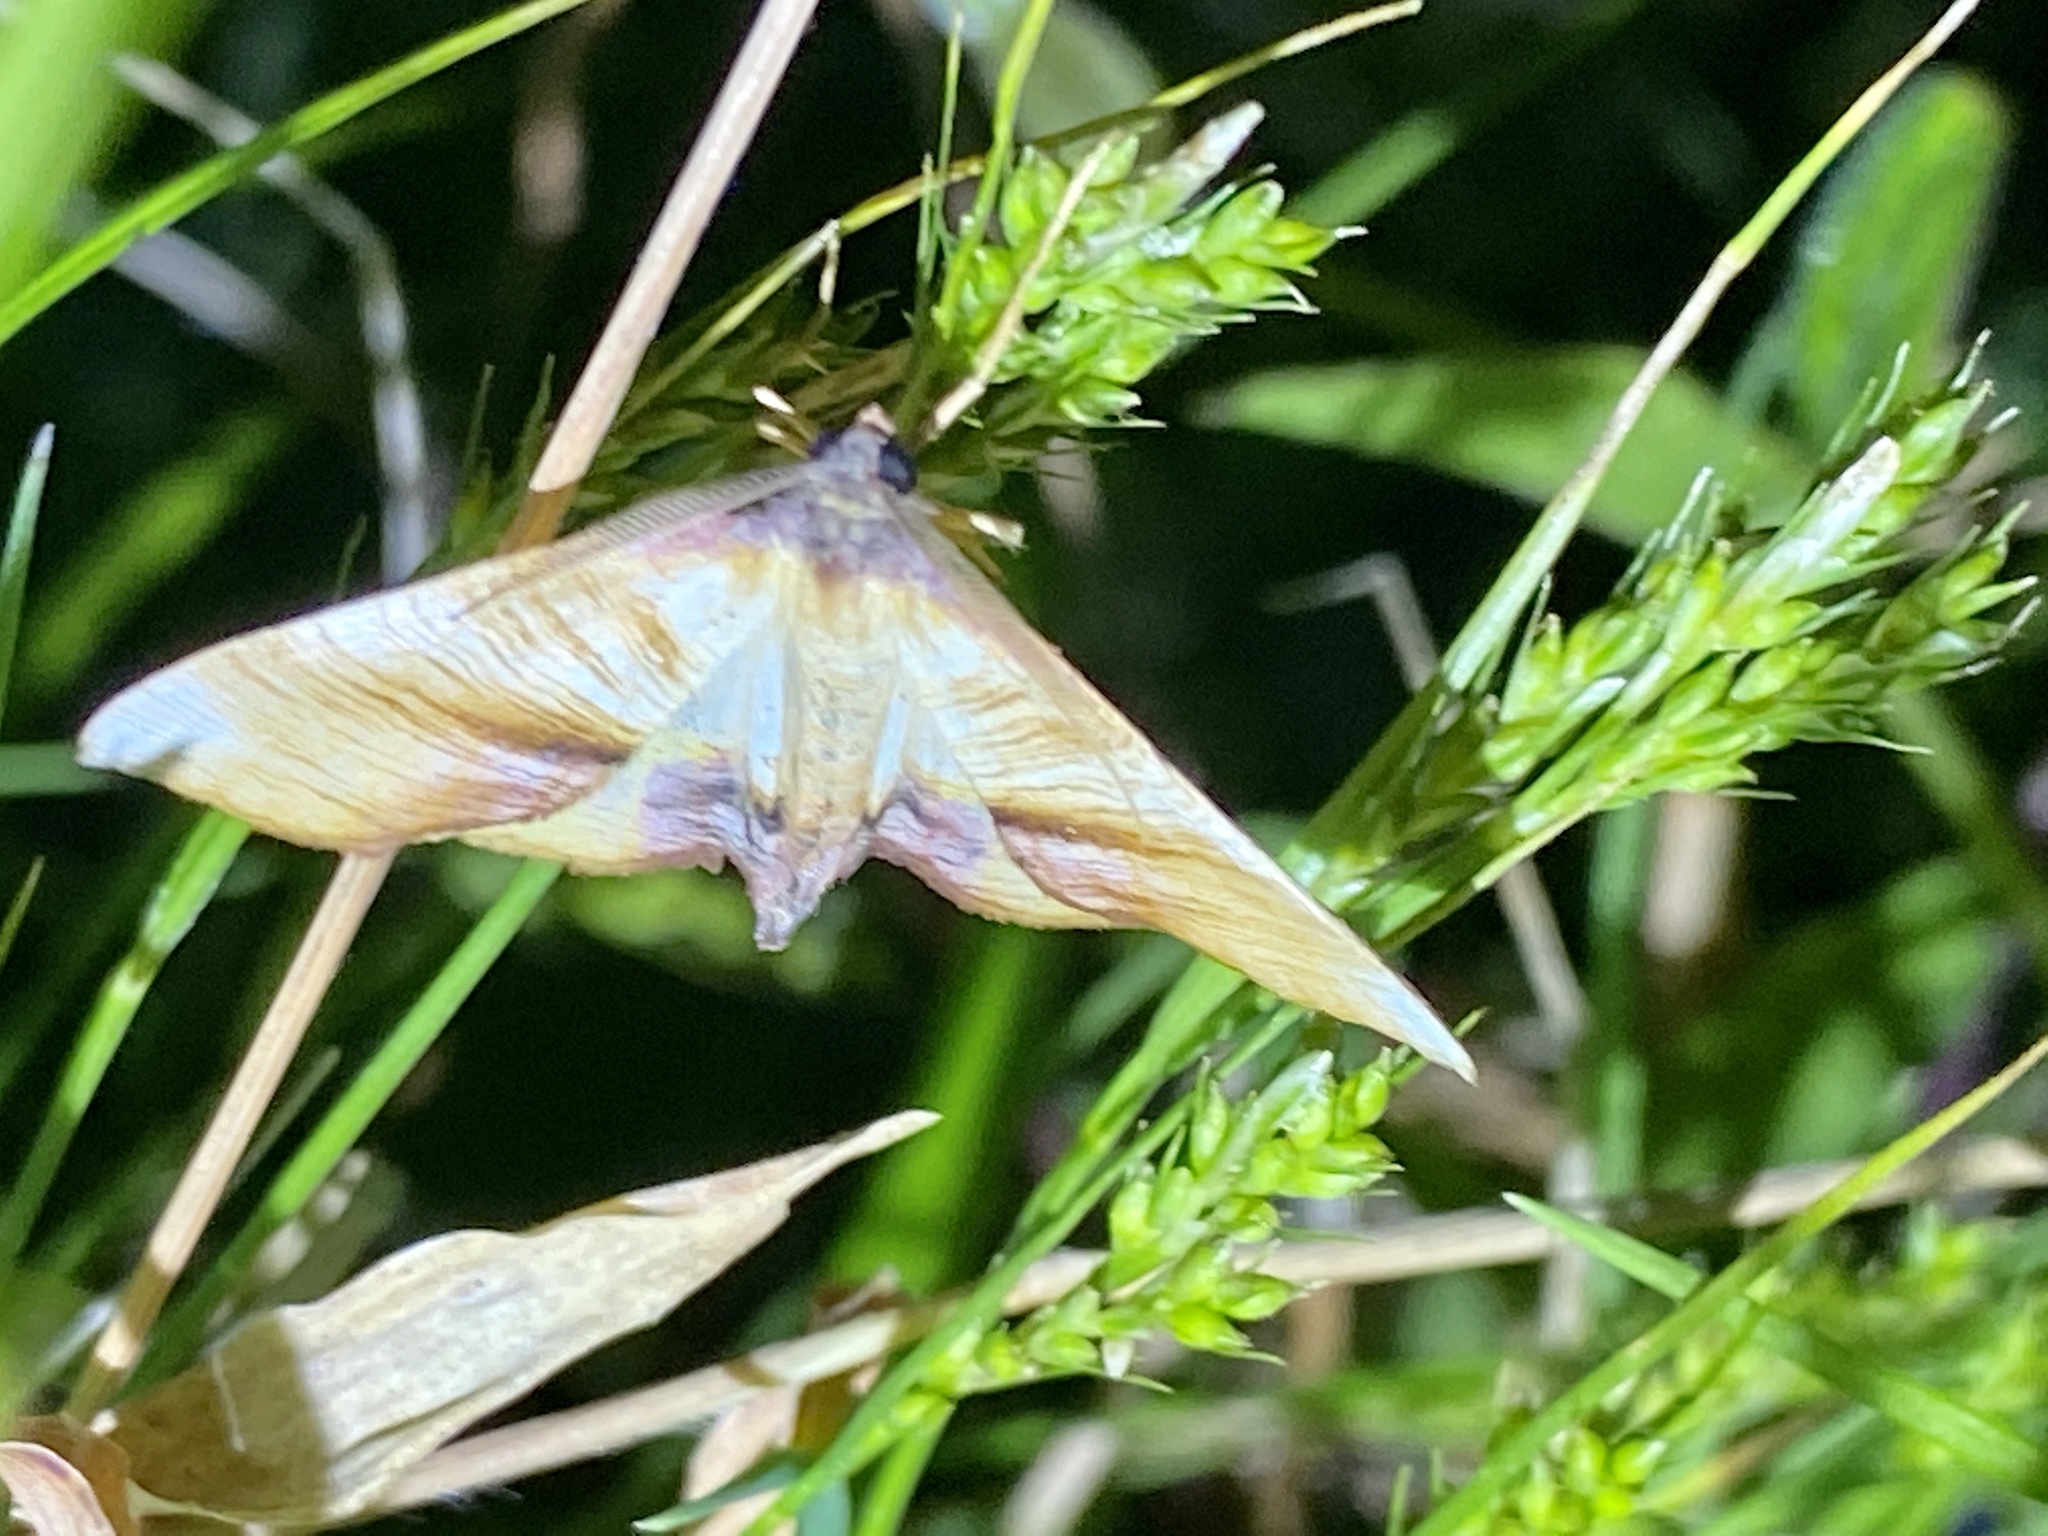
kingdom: Animalia
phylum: Arthropoda
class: Insecta
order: Lepidoptera
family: Geometridae
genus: Plagodis
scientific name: Plagodis dolabraria
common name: Scorched wing
